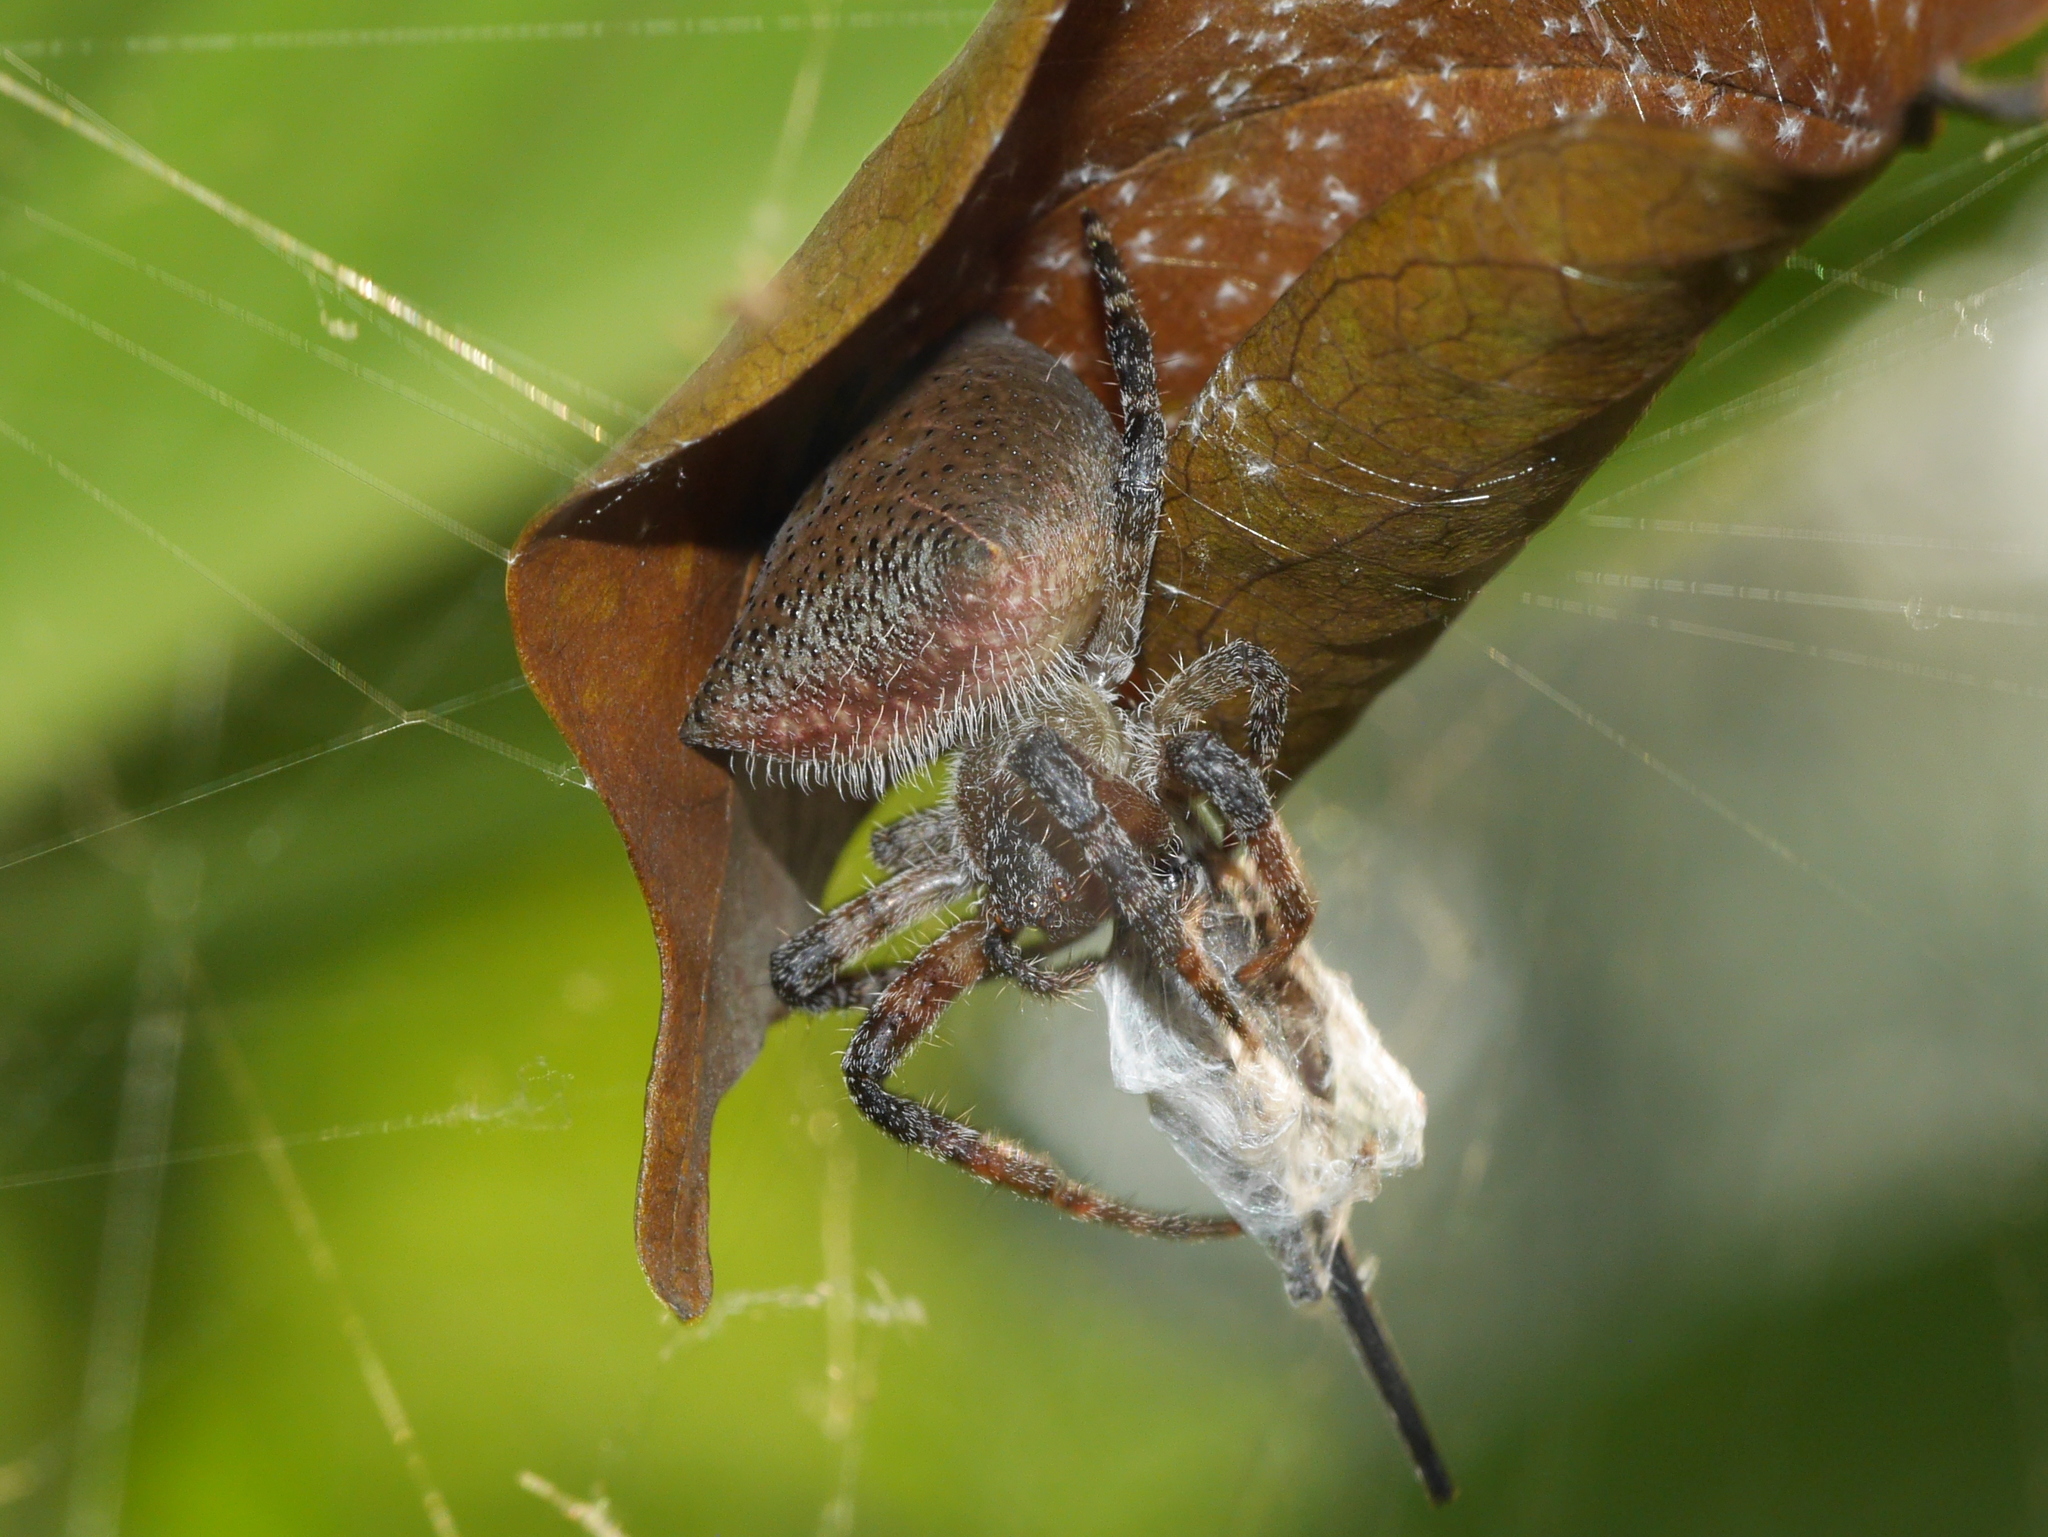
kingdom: Animalia
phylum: Arthropoda
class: Arachnida
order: Araneae
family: Araneidae
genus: Cyrtophora
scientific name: Cyrtophora unicolor
